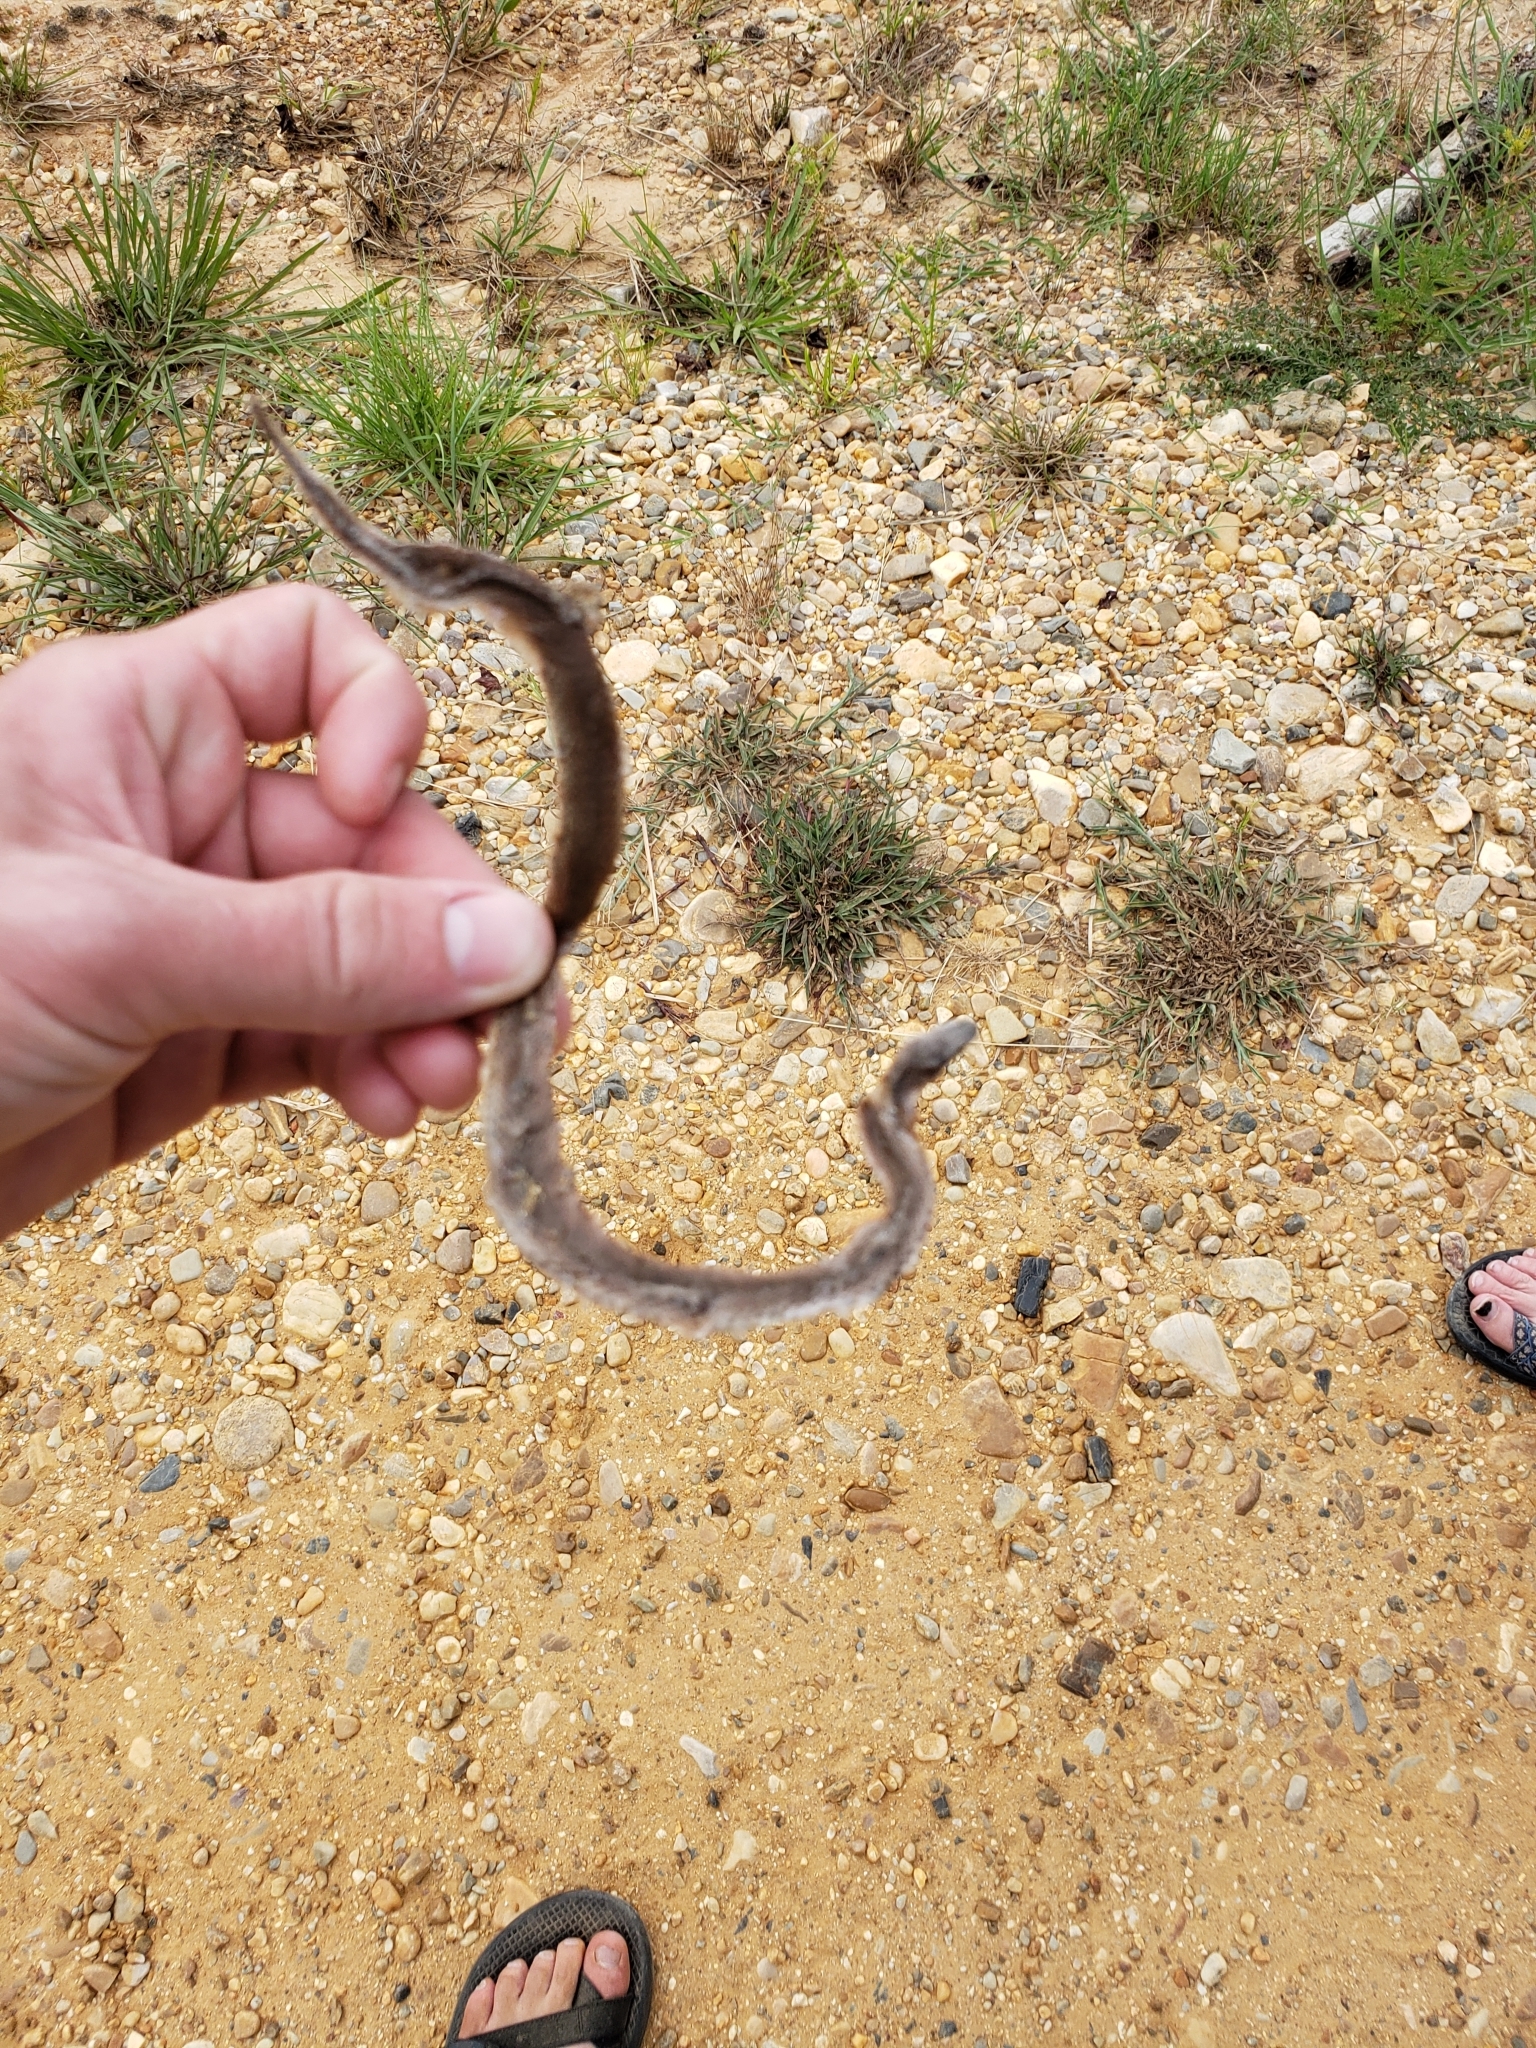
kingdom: Animalia
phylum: Chordata
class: Squamata
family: Colubridae
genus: Virginia
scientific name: Virginia valeriae
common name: Smooth earth snake
